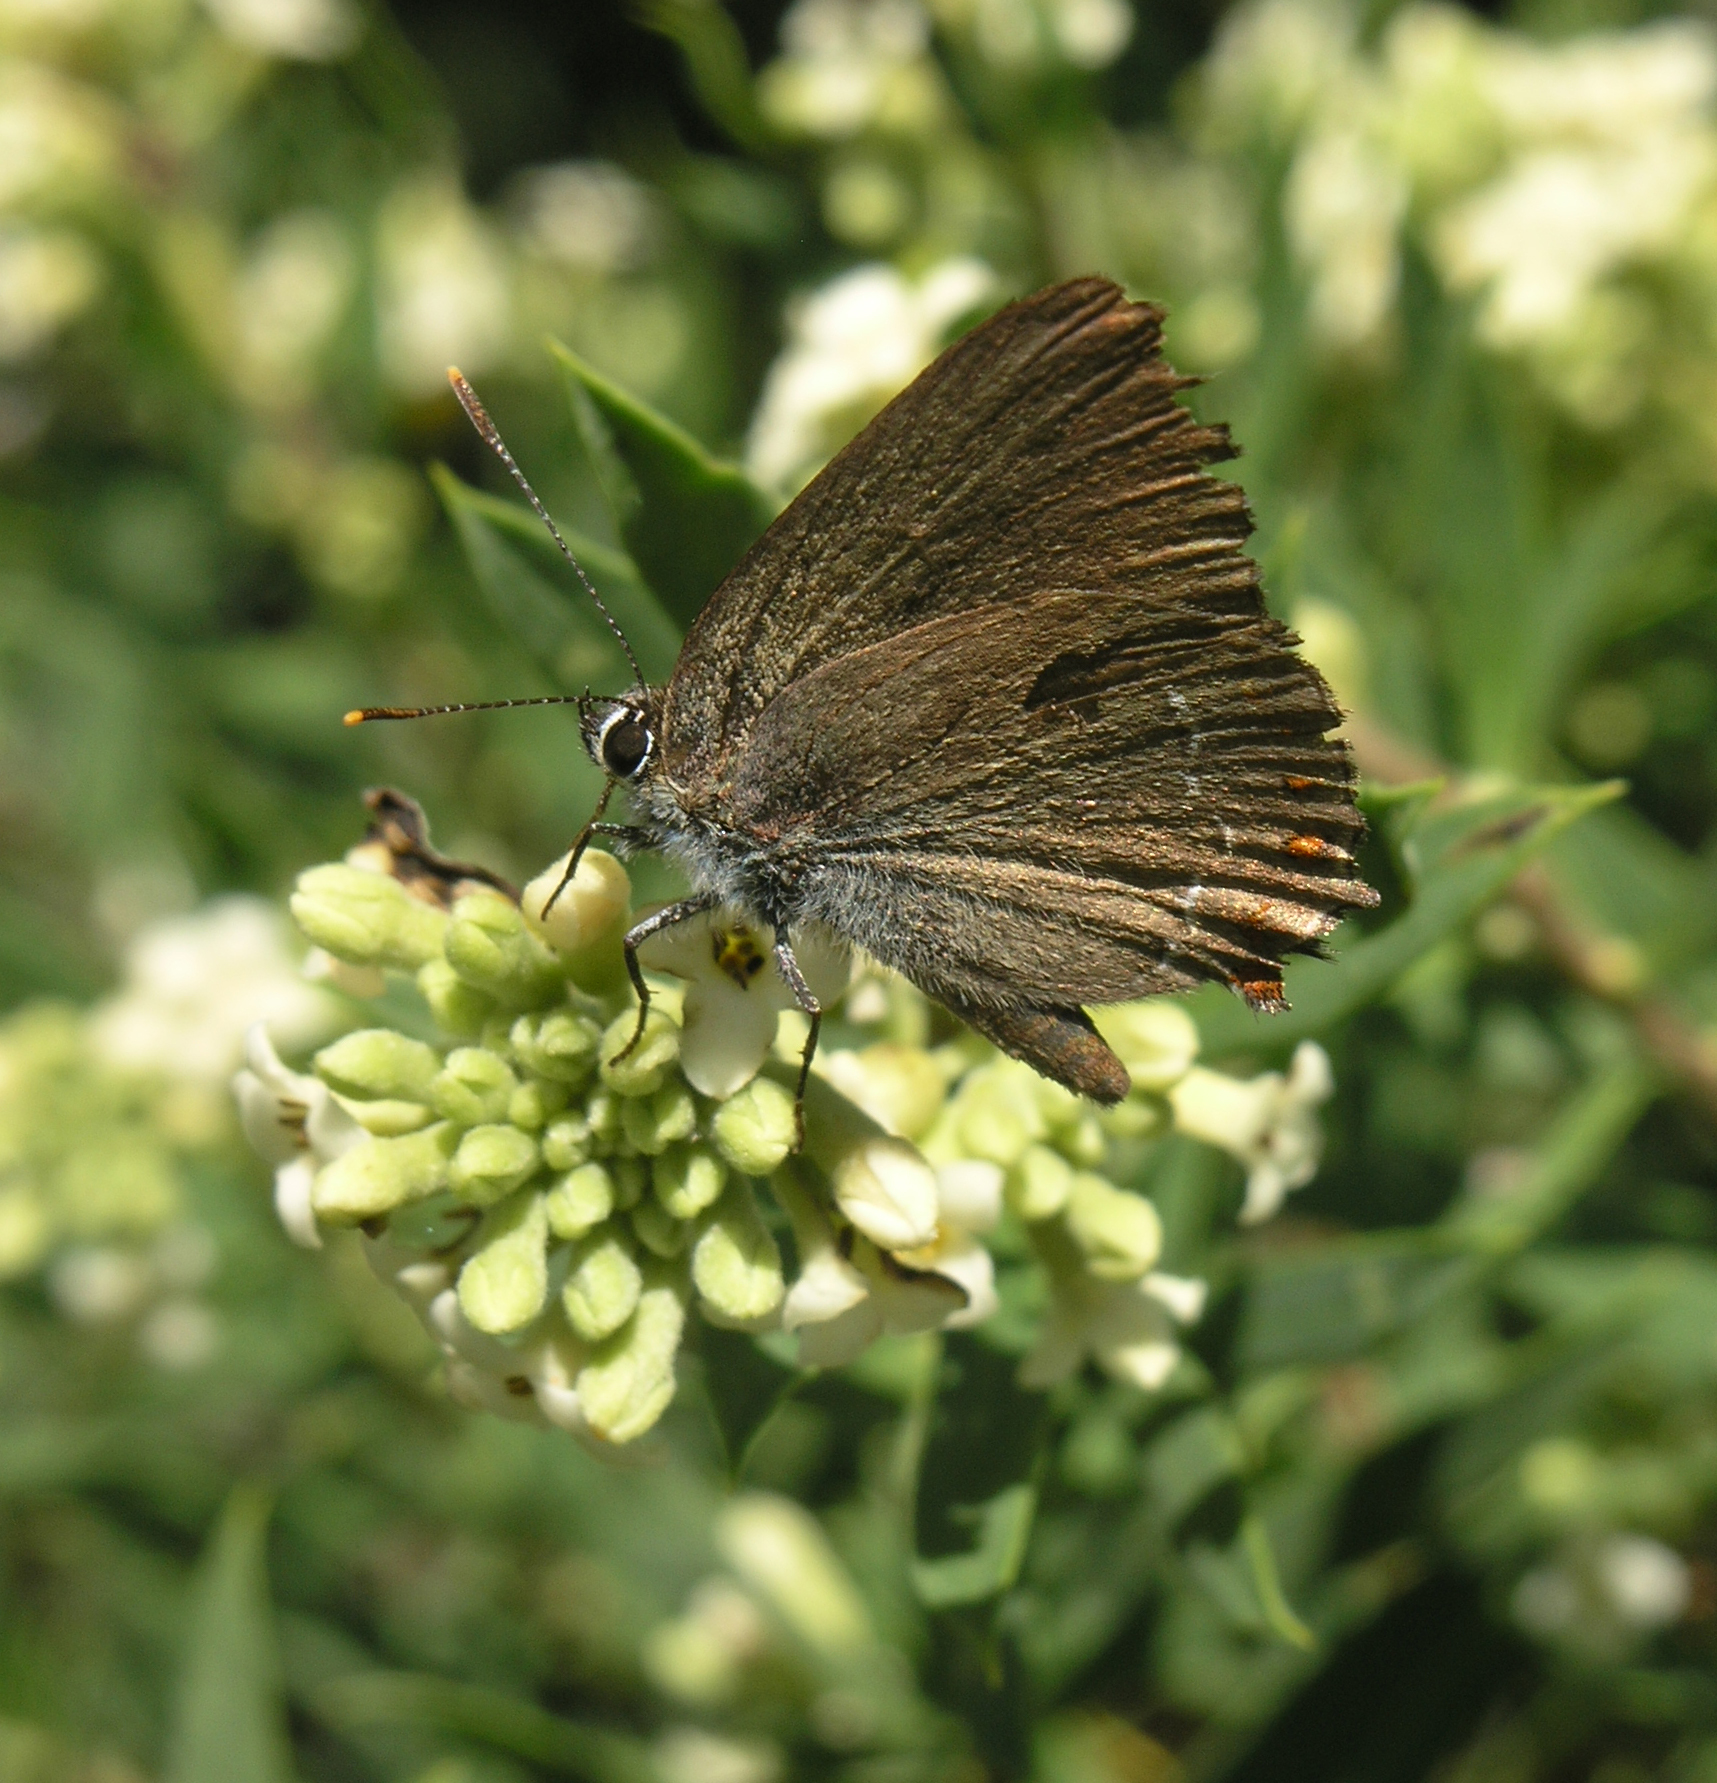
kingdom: Plantae
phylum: Tracheophyta
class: Magnoliopsida
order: Malvales
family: Thymelaeaceae
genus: Daphne
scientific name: Daphne gnidium
